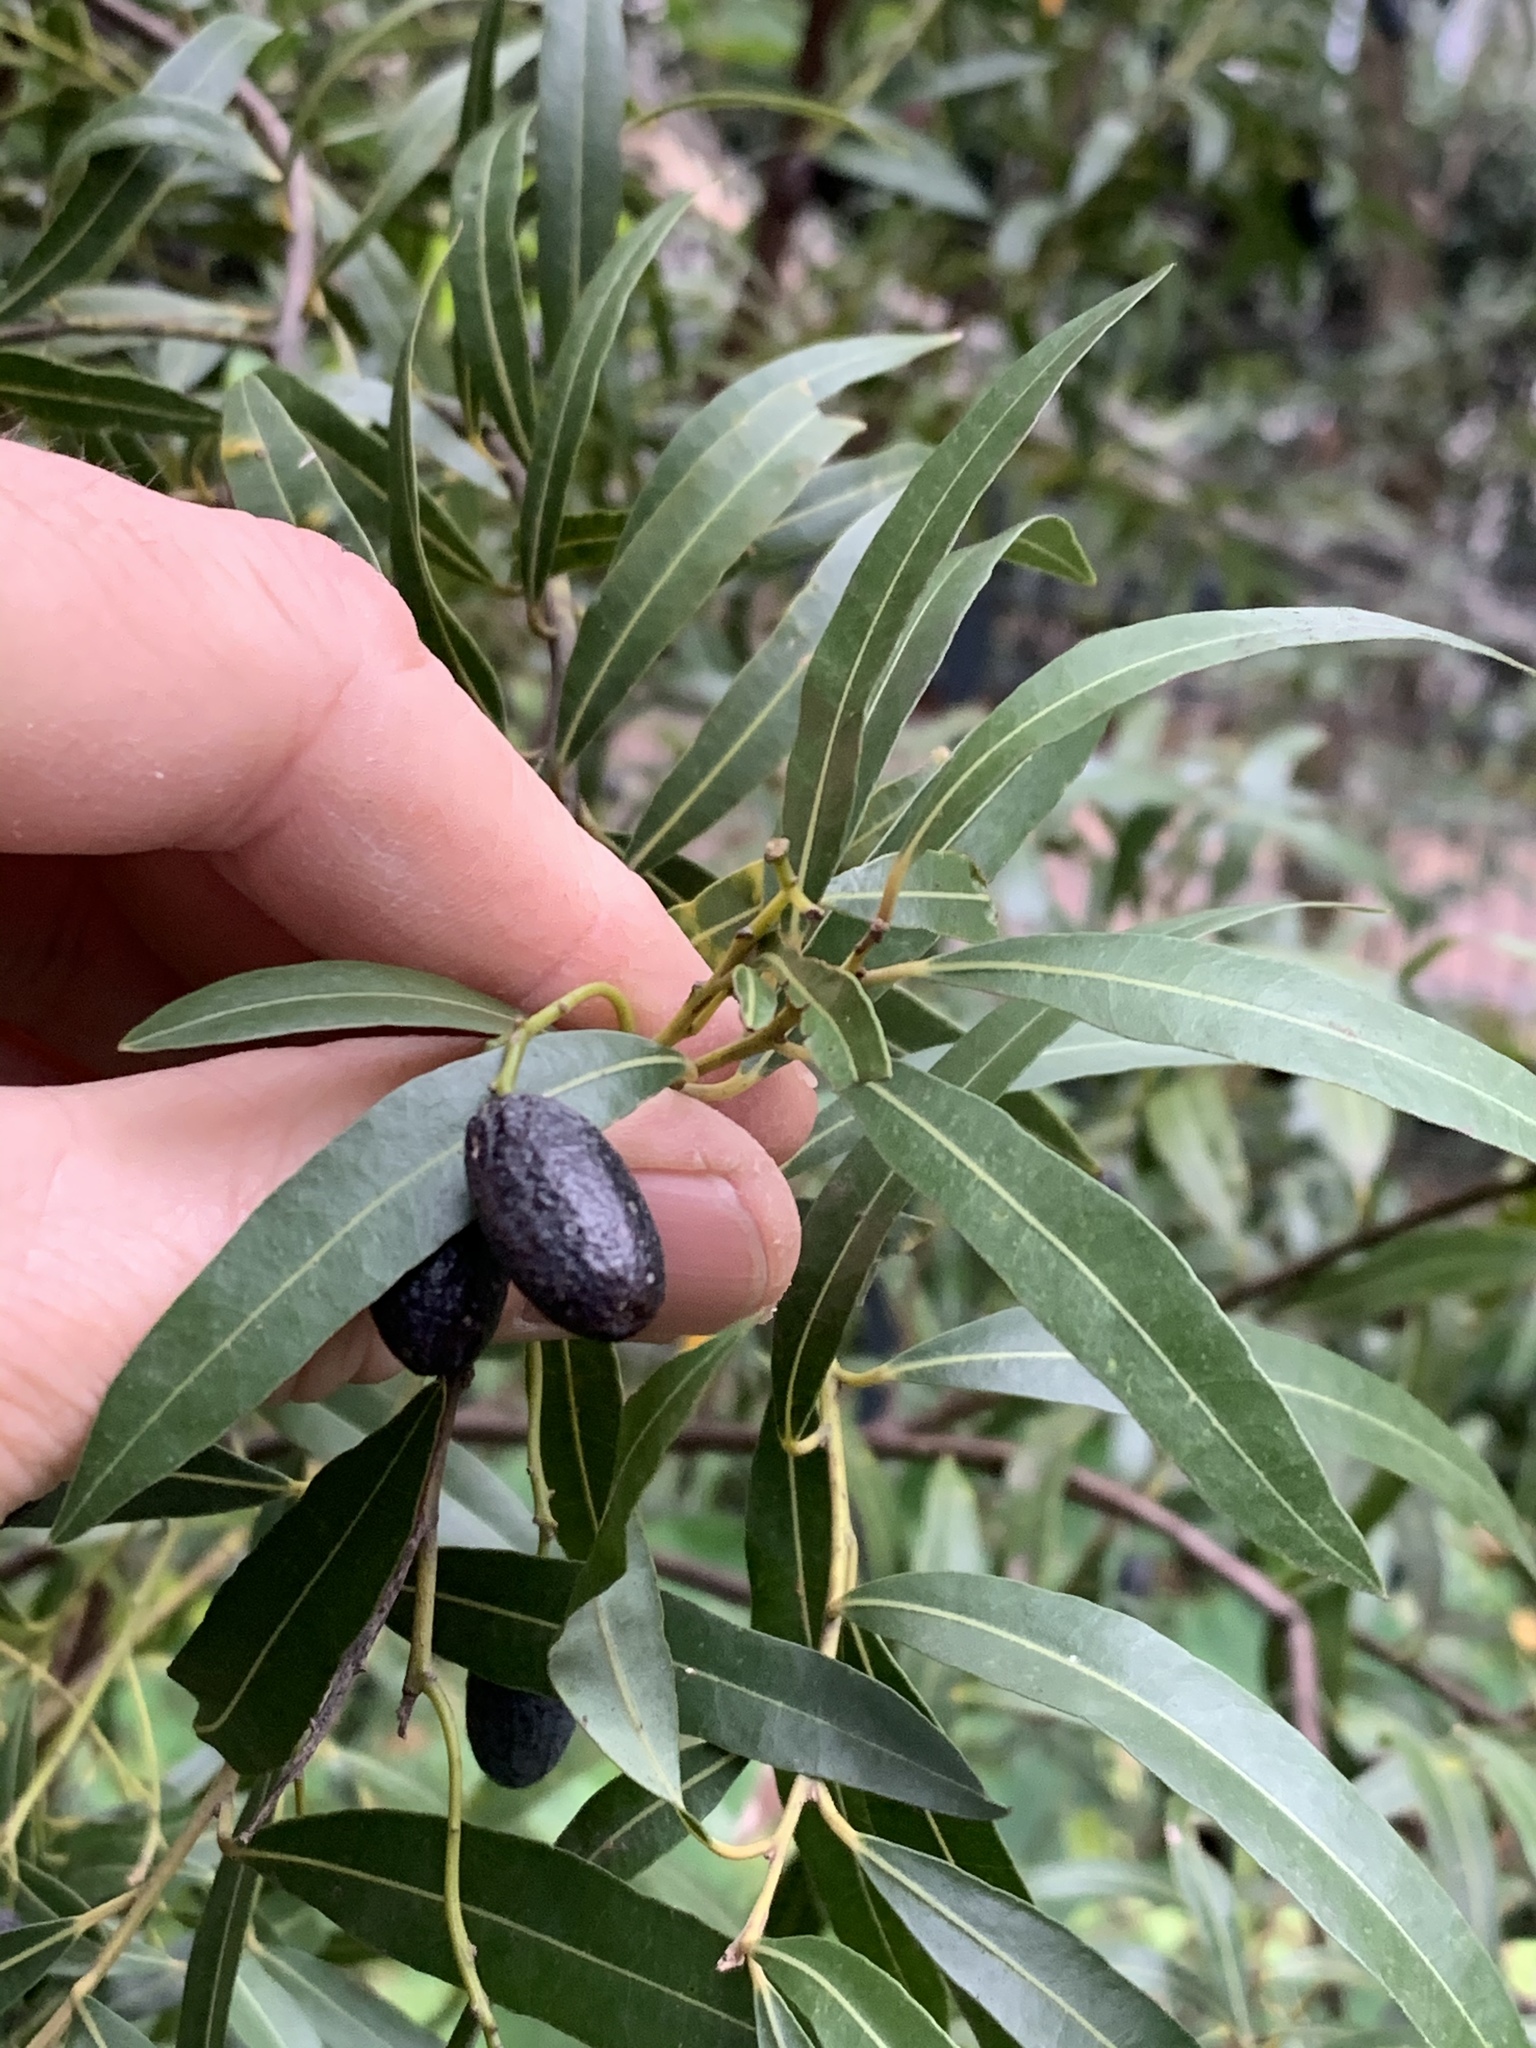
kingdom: Plantae
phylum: Tracheophyta
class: Magnoliopsida
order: Laurales
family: Lauraceae
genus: Cryptocarya
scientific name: Cryptocarya angustifolia
